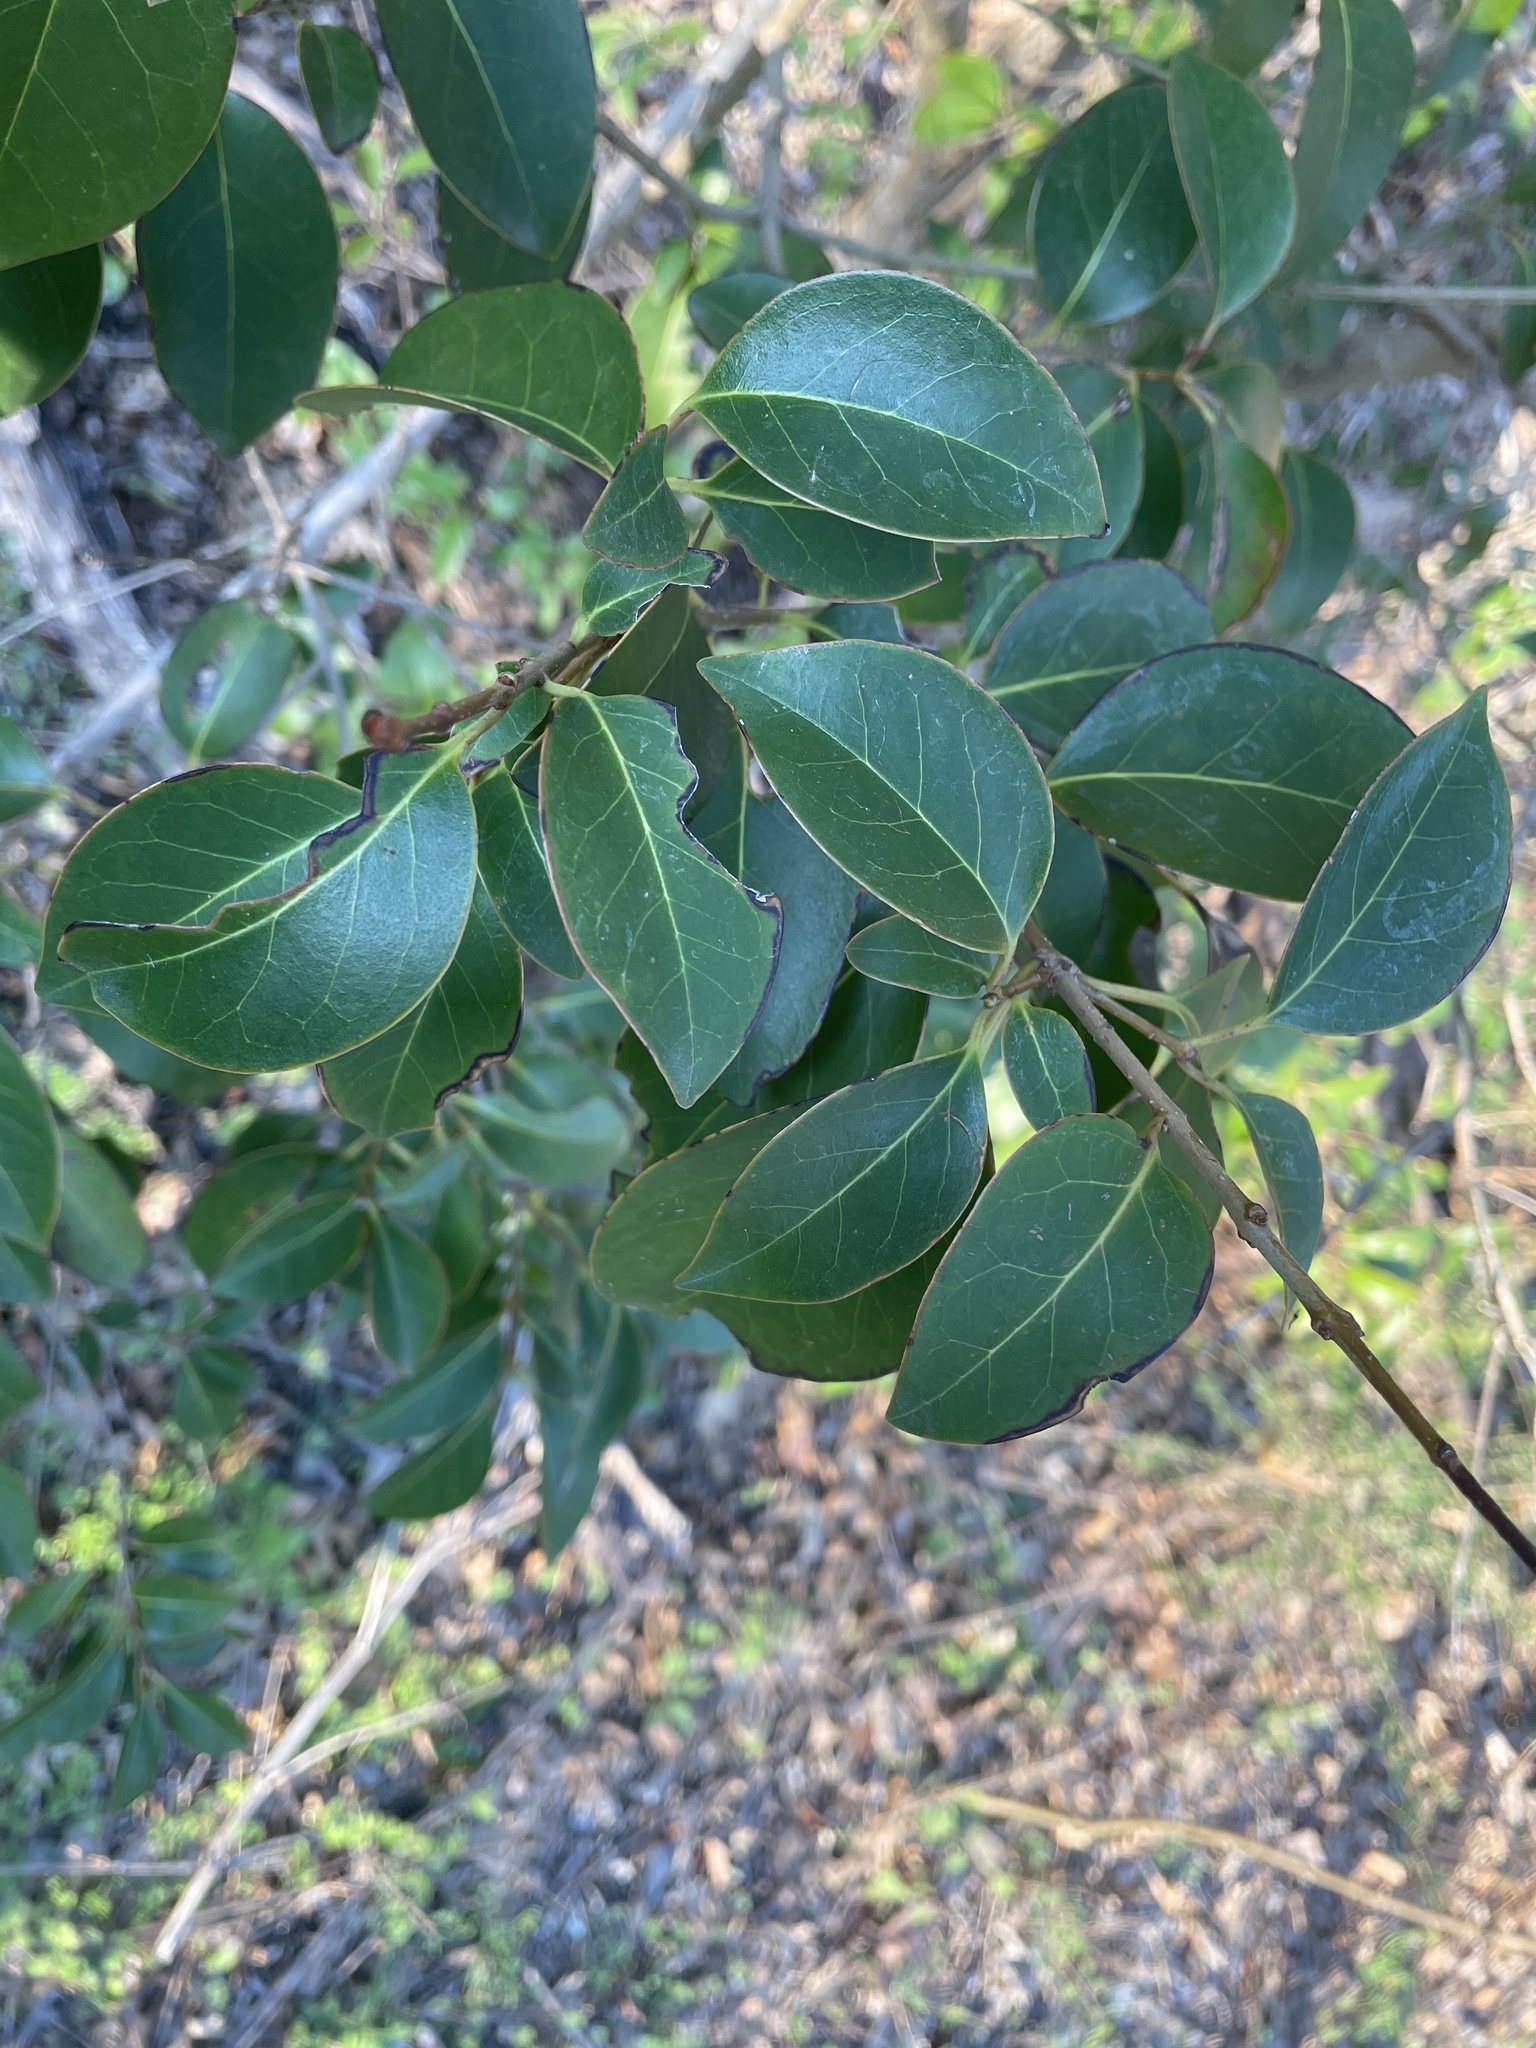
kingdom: Plantae
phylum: Tracheophyta
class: Magnoliopsida
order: Lamiales
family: Oleaceae
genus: Ligustrum
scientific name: Ligustrum lucidum
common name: Glossy privet
